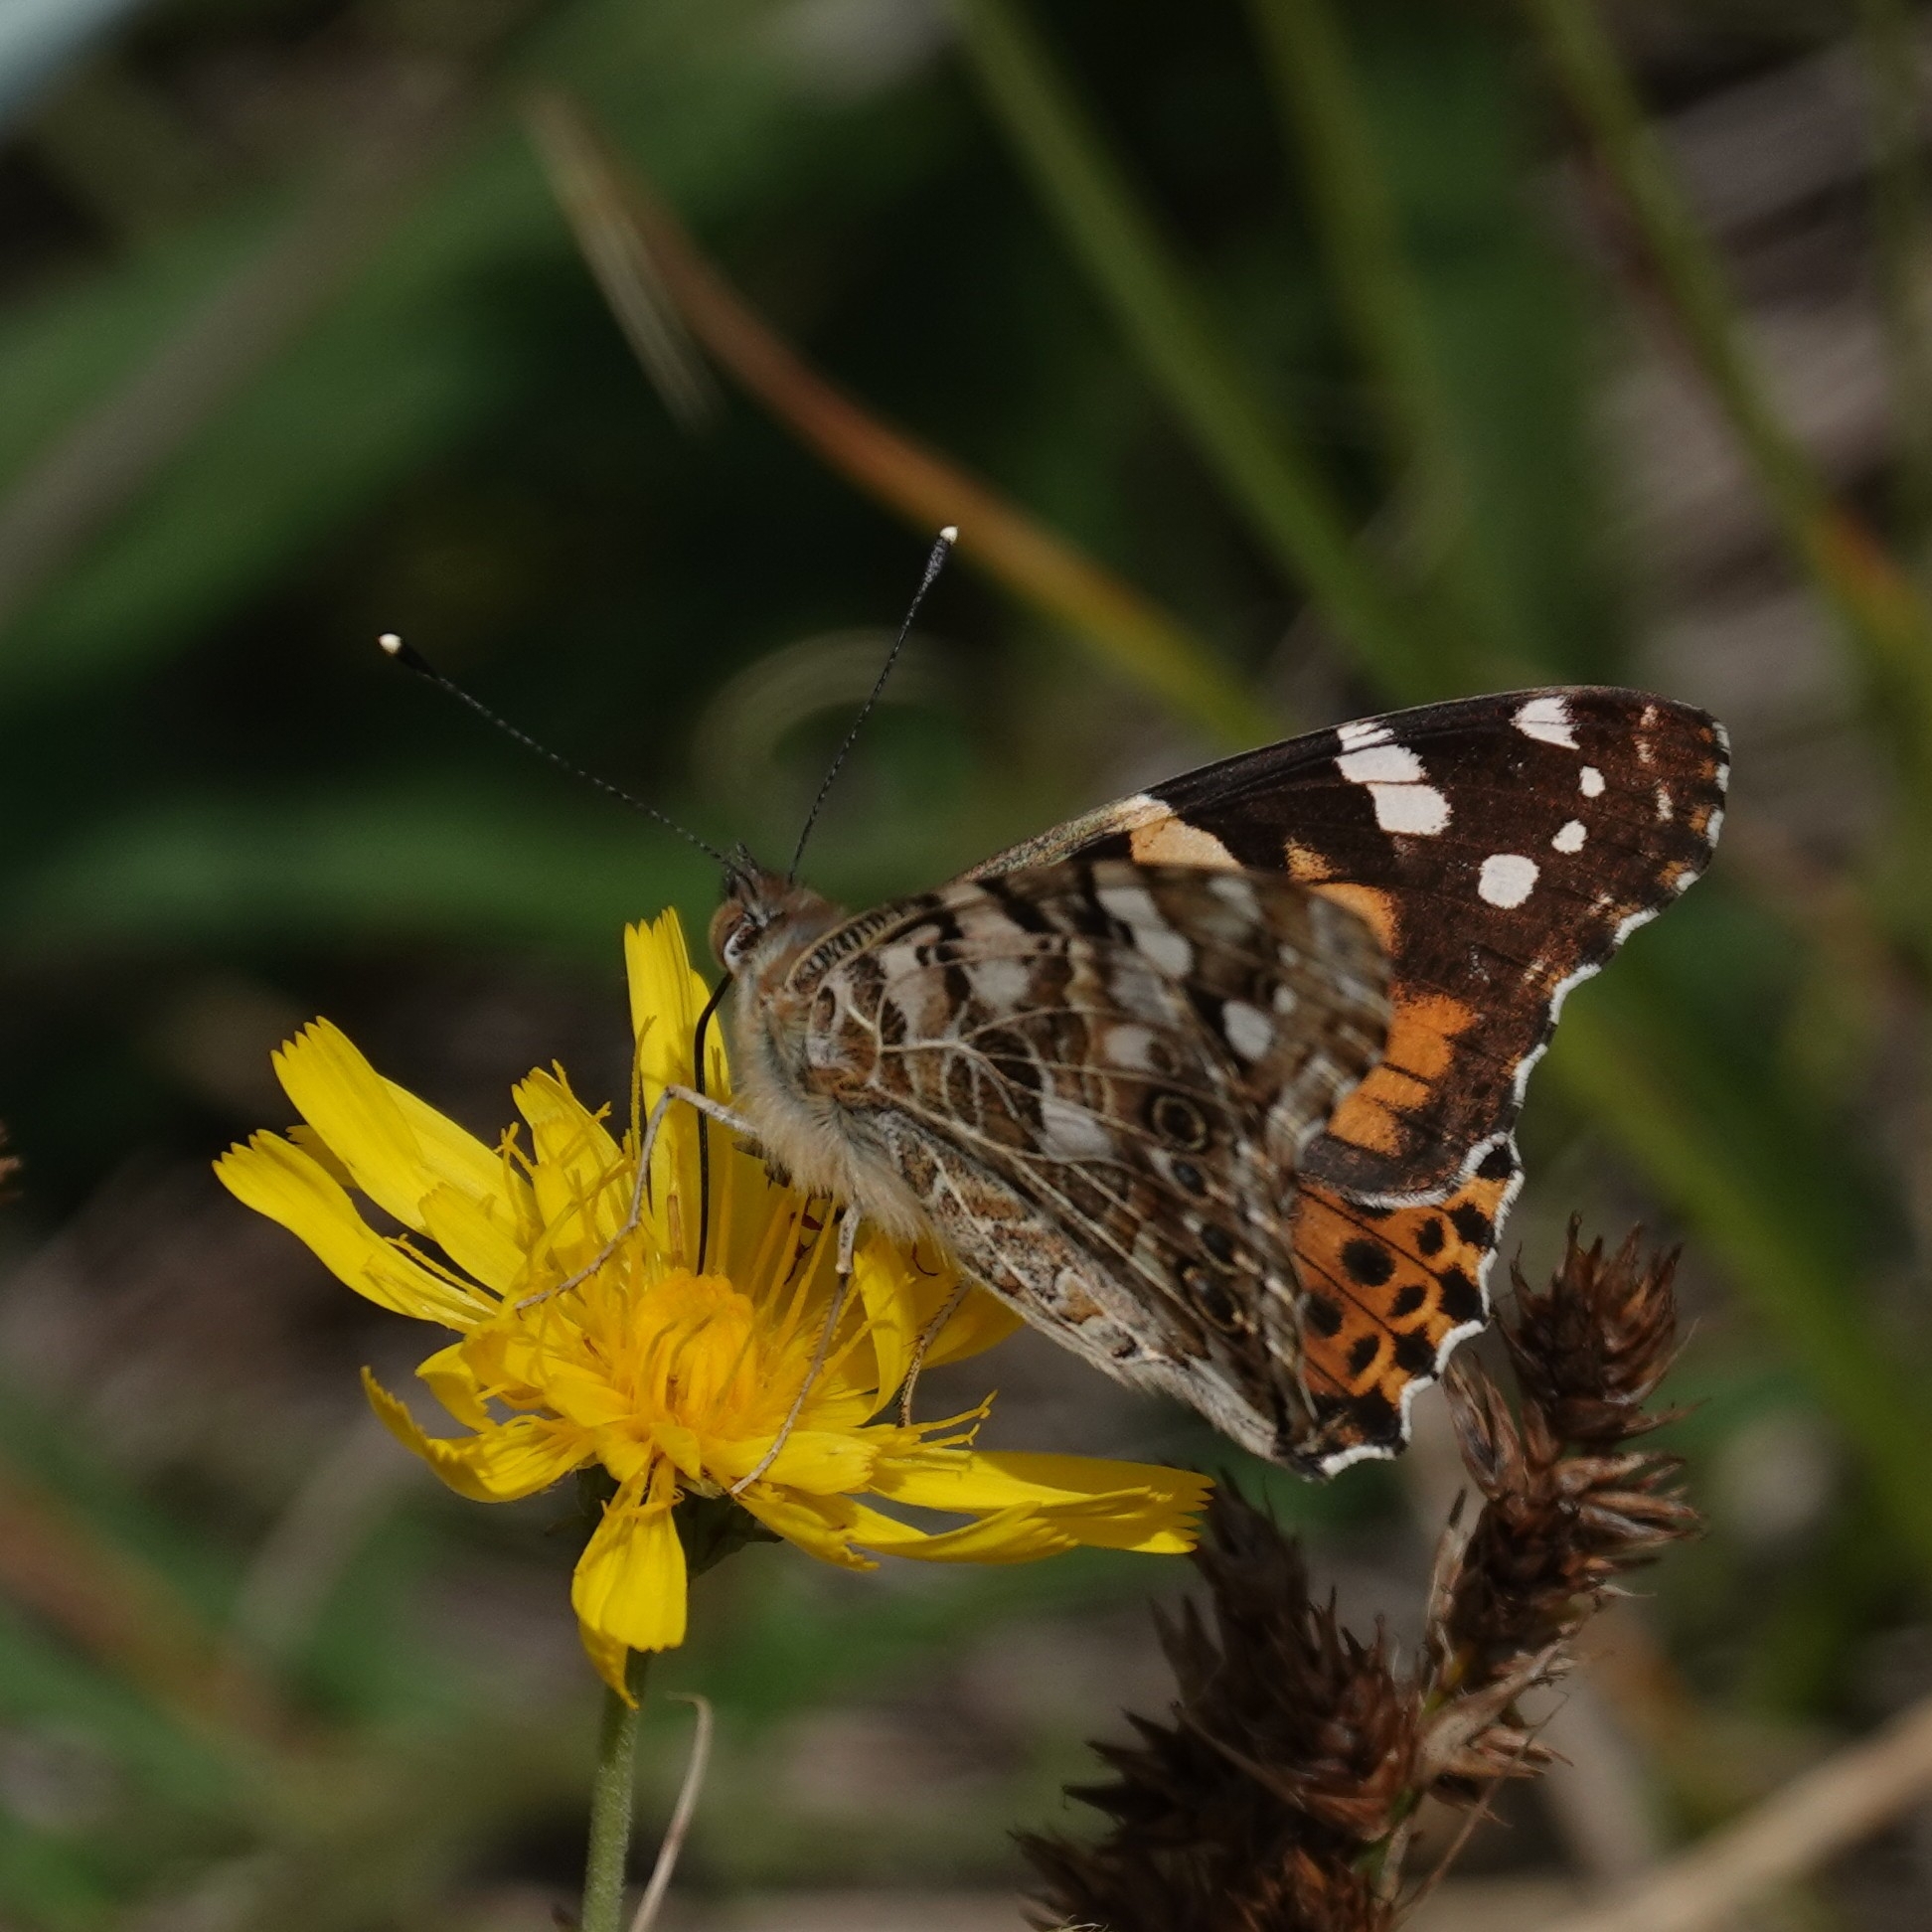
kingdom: Animalia
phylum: Arthropoda
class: Insecta
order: Lepidoptera
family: Nymphalidae
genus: Vanessa
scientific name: Vanessa cardui
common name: Painted lady
